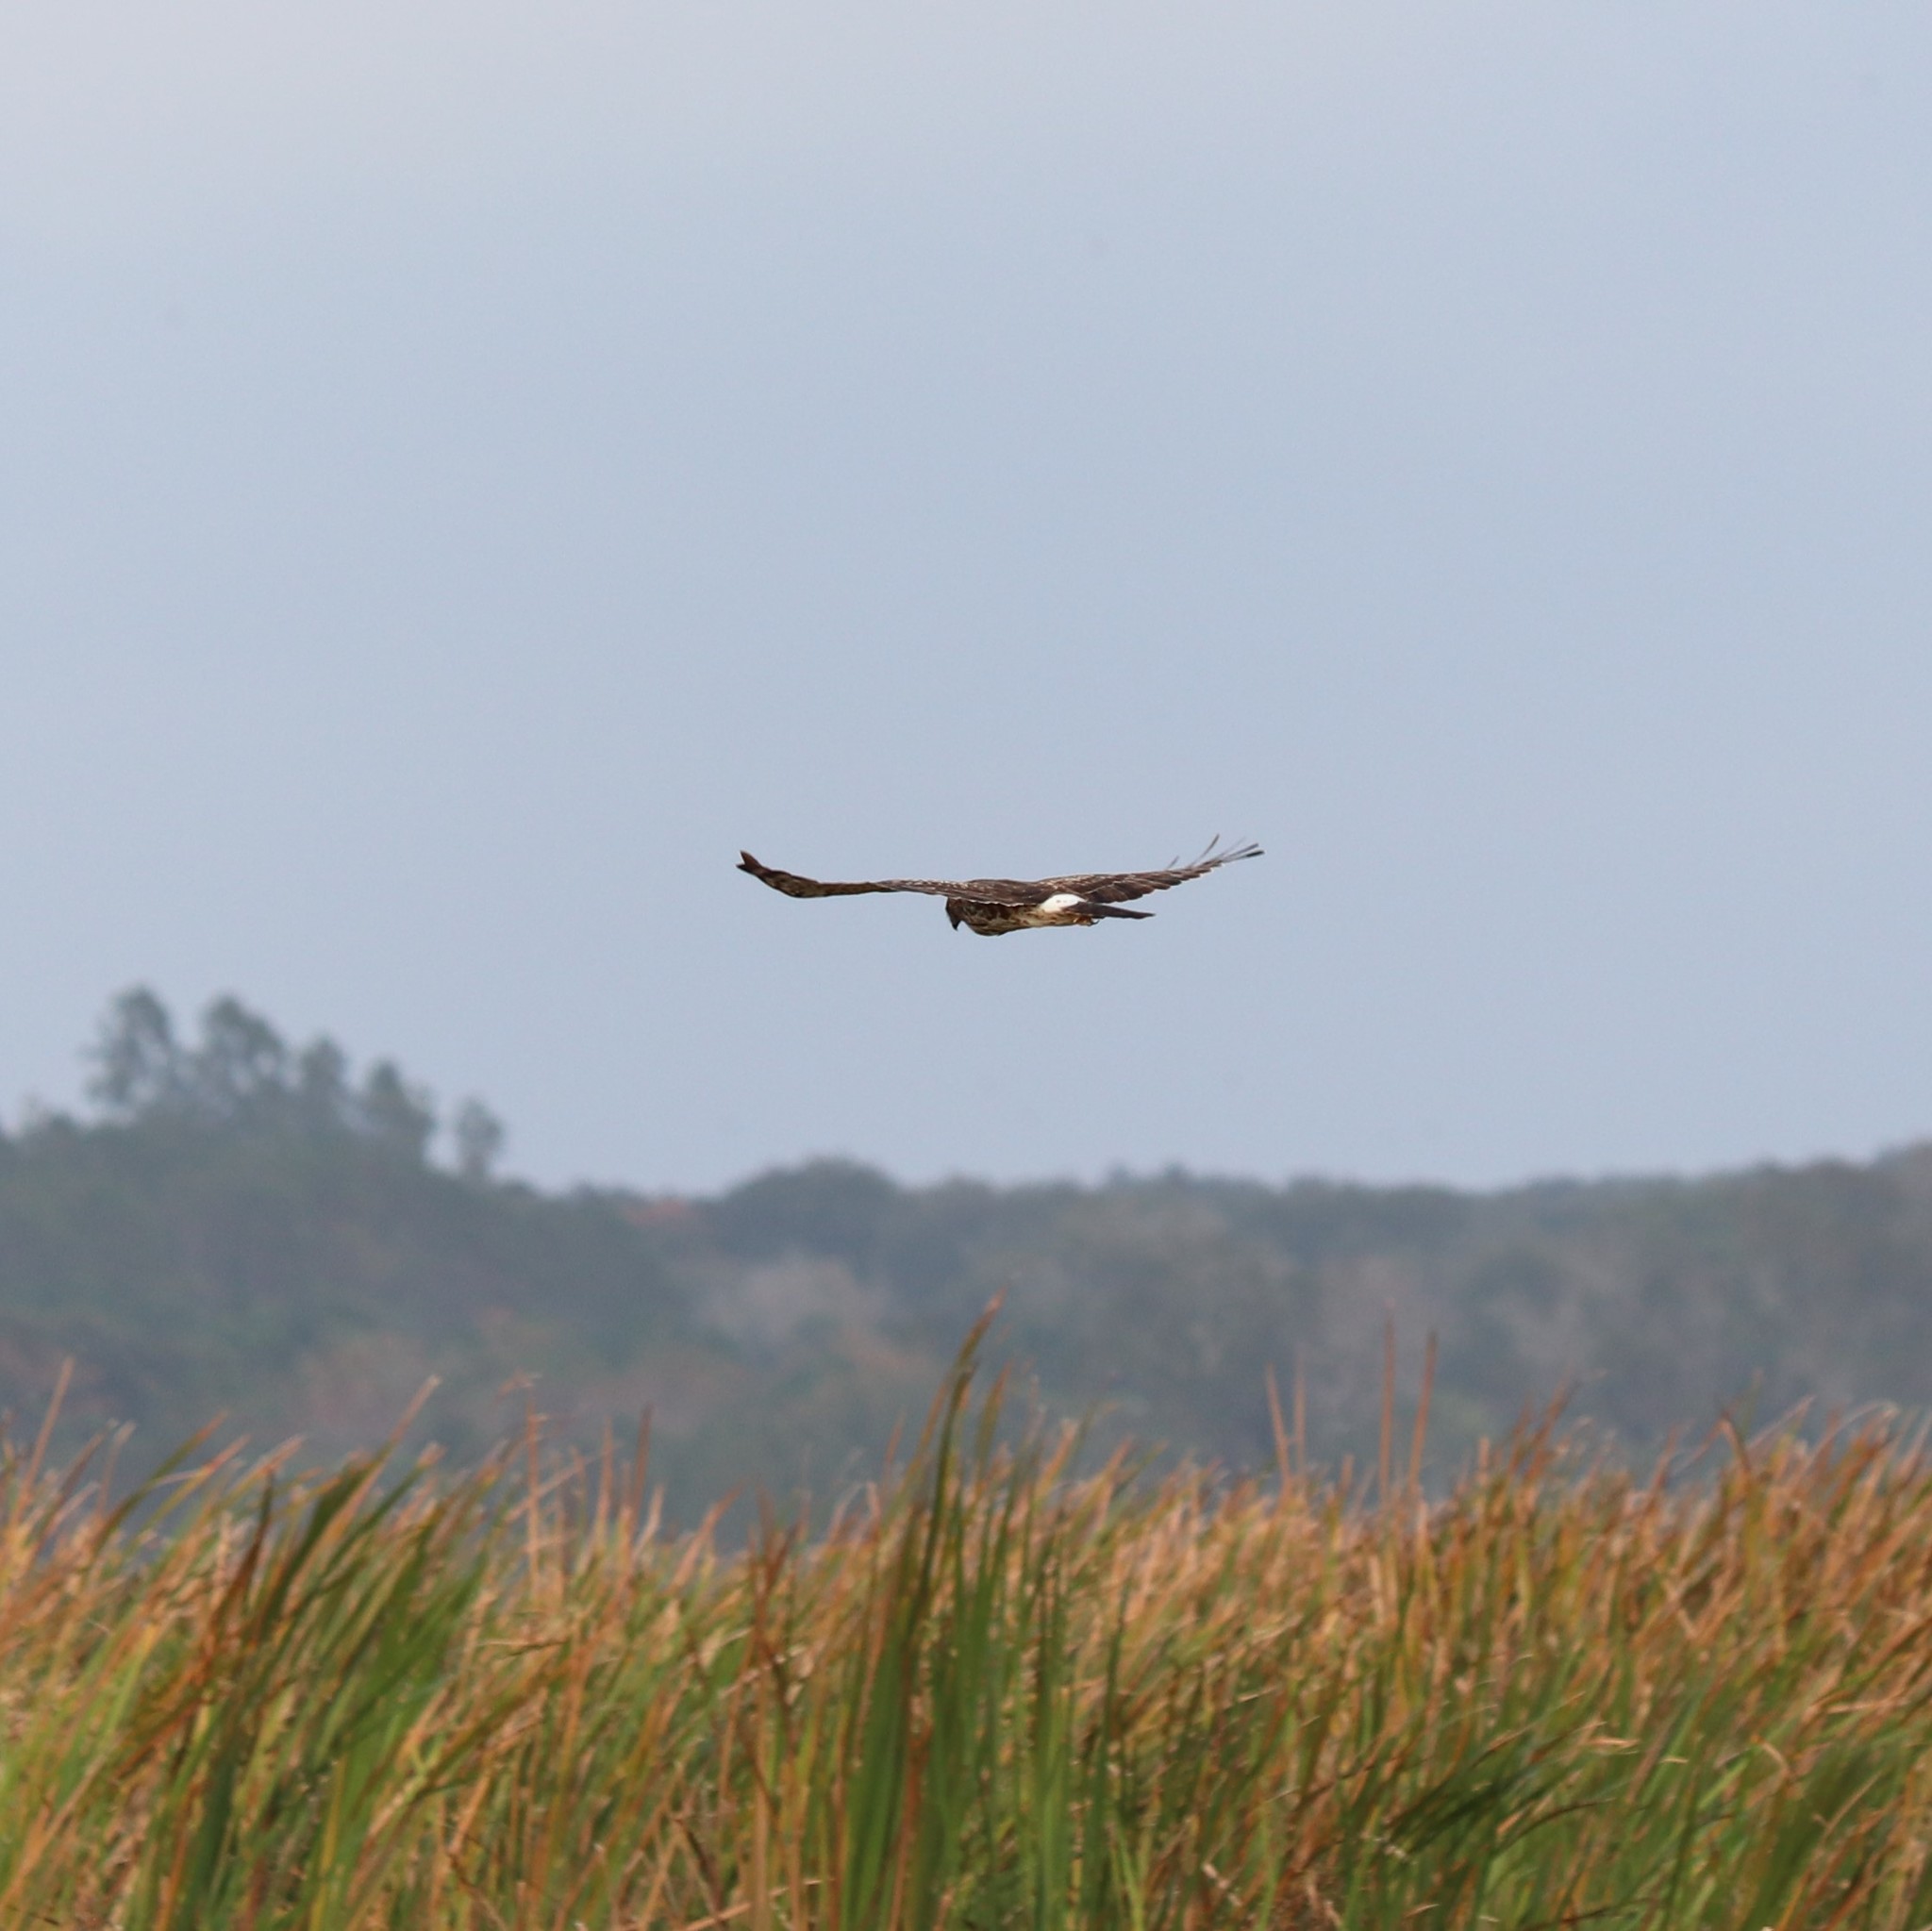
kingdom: Animalia
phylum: Chordata
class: Aves
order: Accipitriformes
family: Accipitridae
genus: Circus
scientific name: Circus cyaneus
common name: Hen harrier
